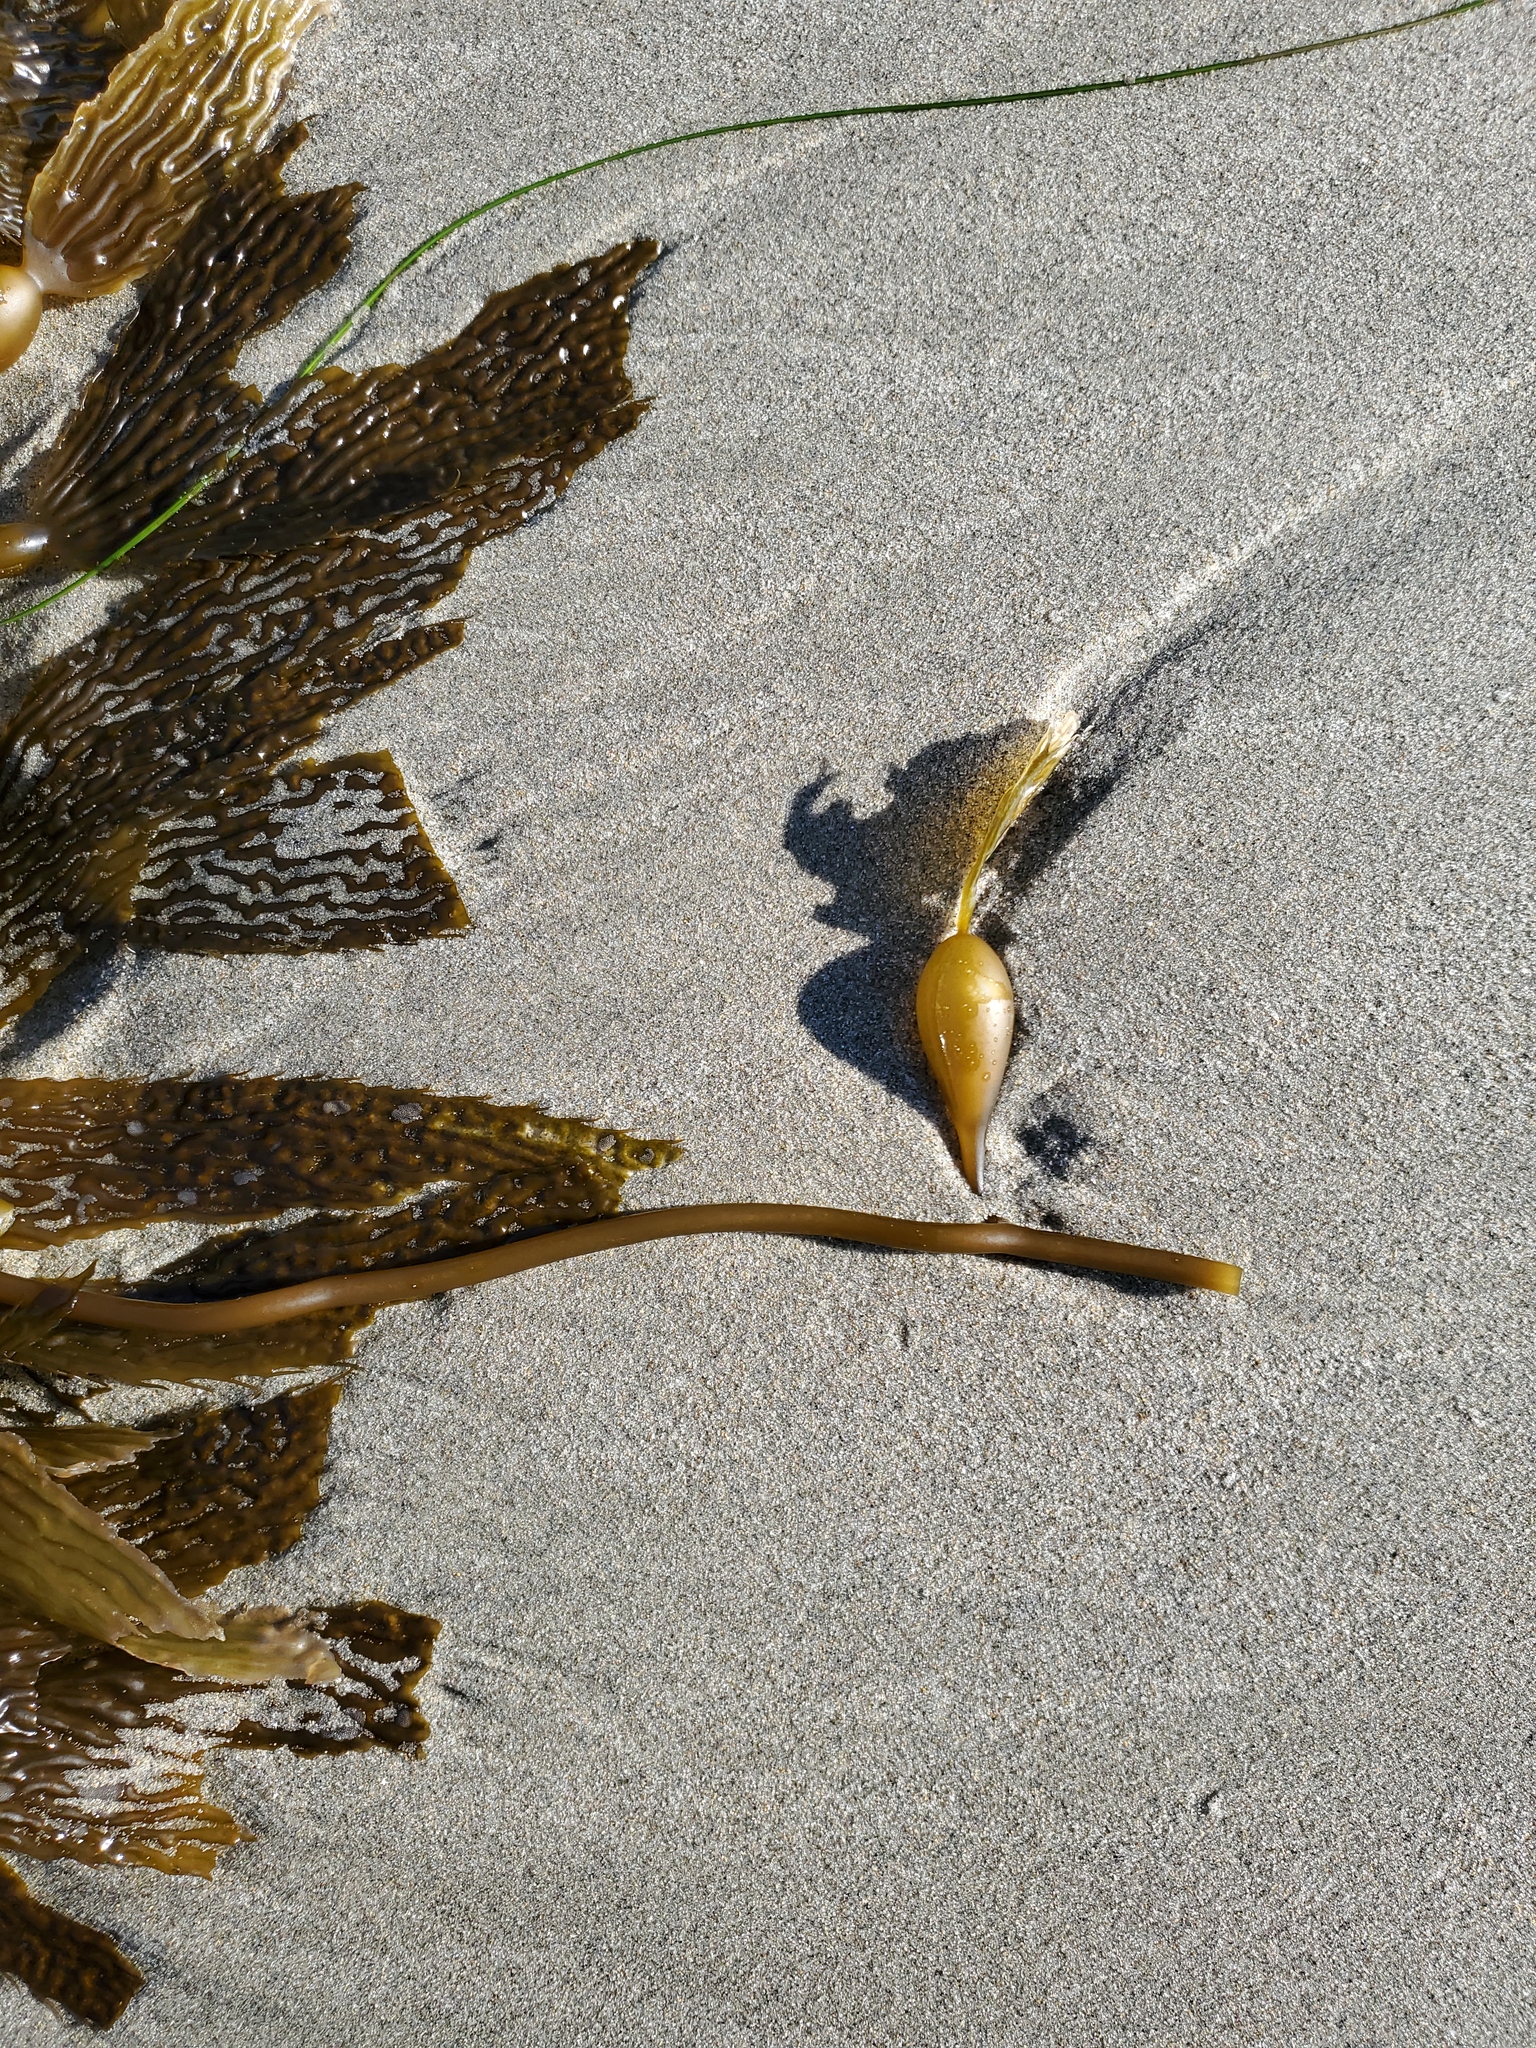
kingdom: Chromista
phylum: Ochrophyta
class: Phaeophyceae
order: Laminariales
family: Laminariaceae
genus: Macrocystis
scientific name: Macrocystis pyrifera
